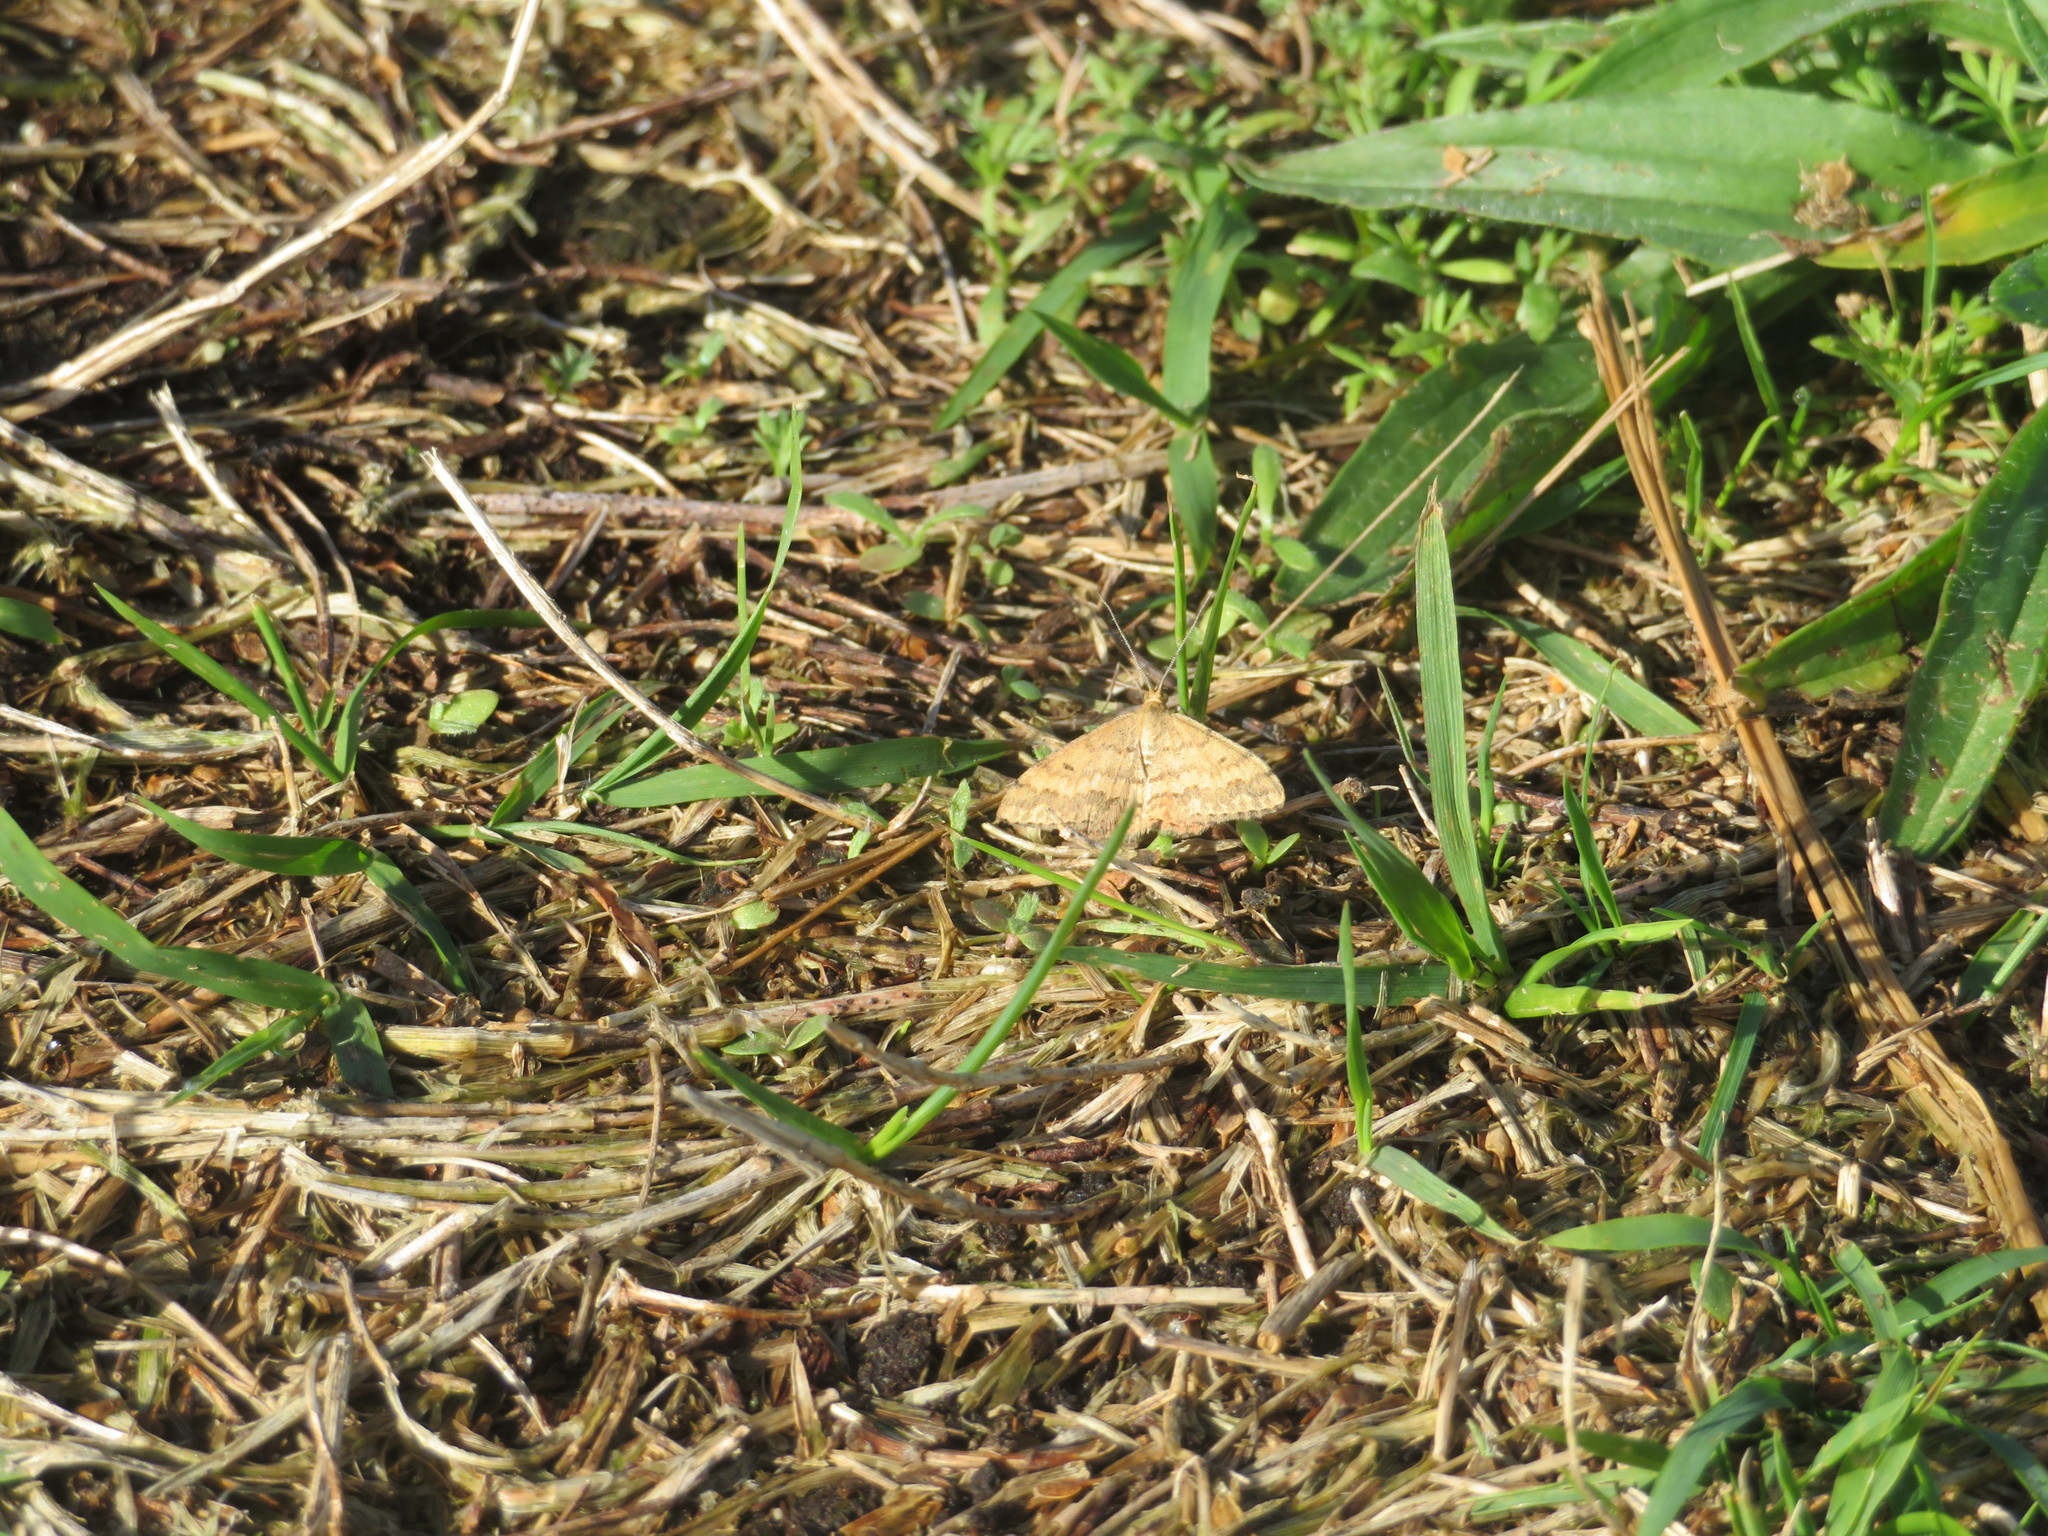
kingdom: Animalia
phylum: Arthropoda
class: Insecta
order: Lepidoptera
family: Geometridae
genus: Scopula
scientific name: Scopula rubraria
